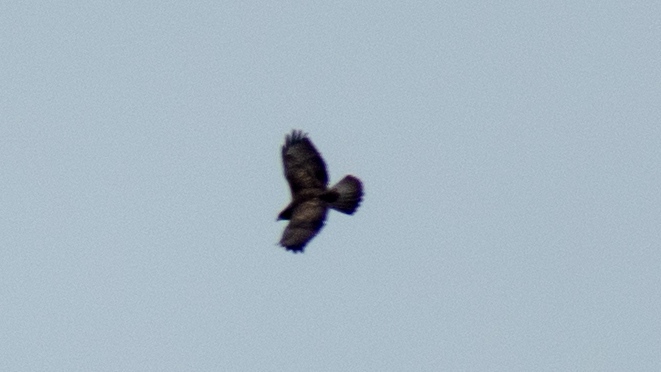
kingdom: Animalia
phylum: Chordata
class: Aves
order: Accipitriformes
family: Accipitridae
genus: Buteo
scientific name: Buteo buteo
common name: Common buzzard
